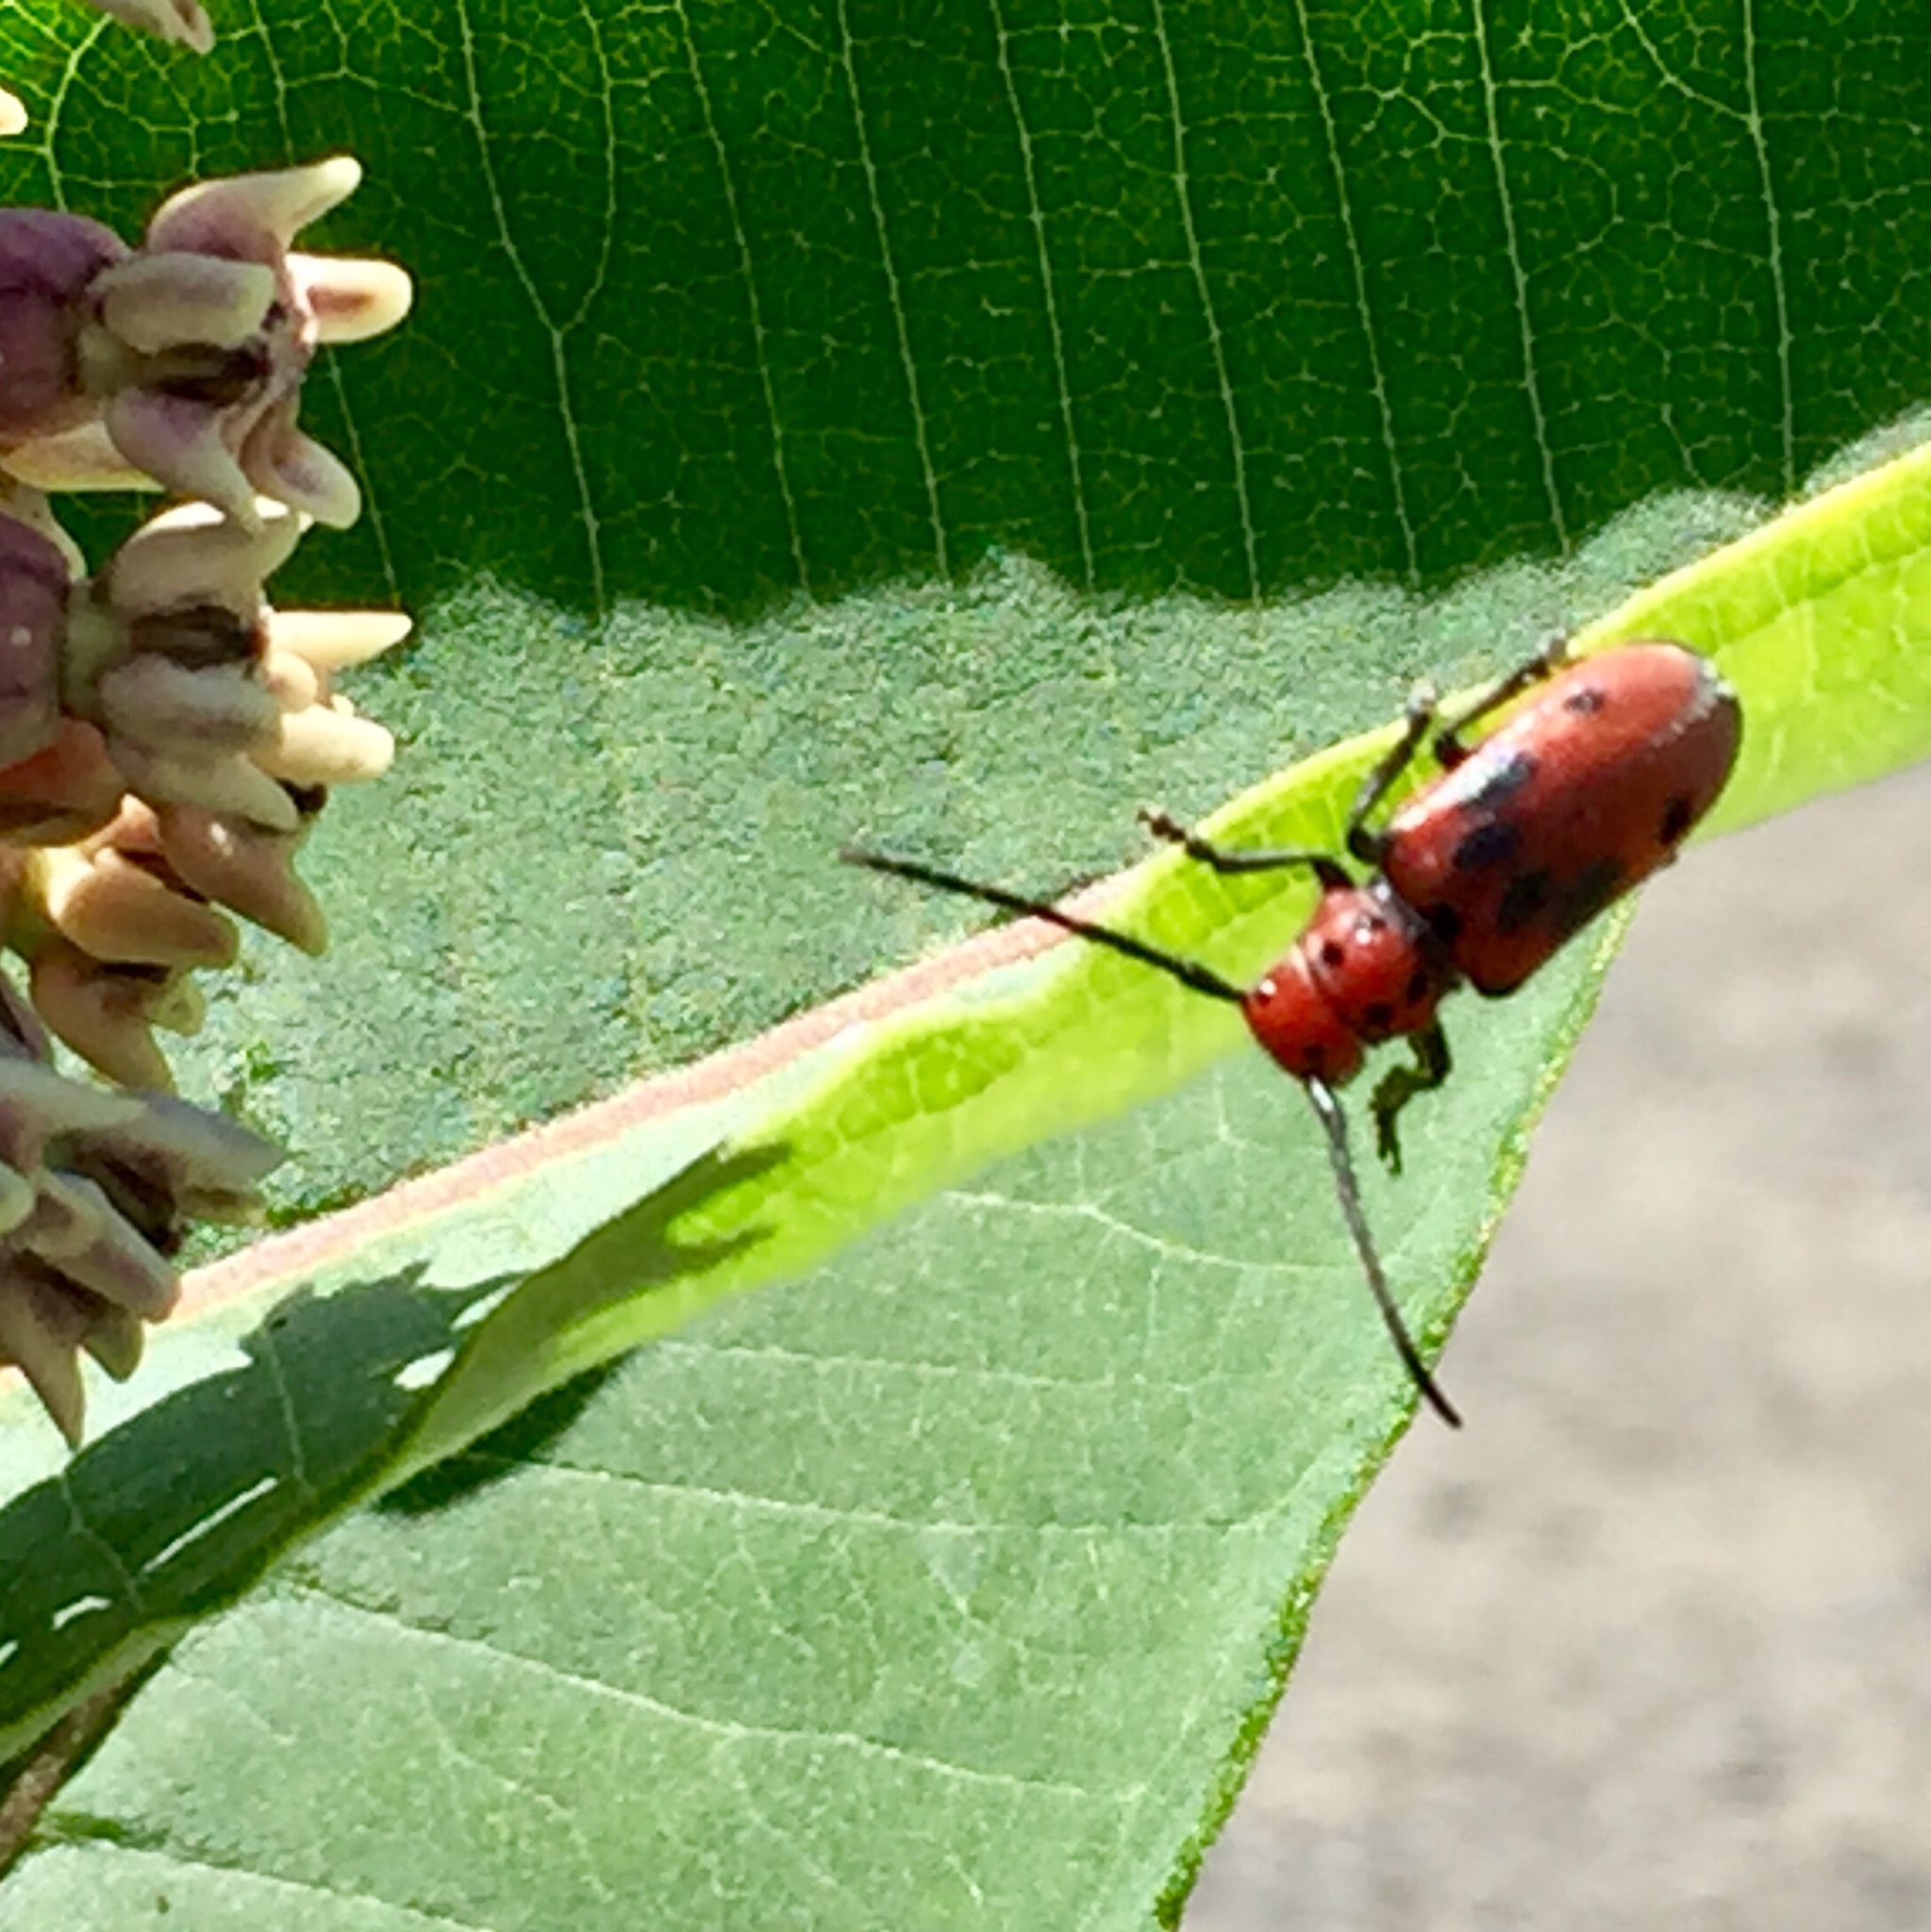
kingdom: Animalia
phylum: Arthropoda
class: Insecta
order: Coleoptera
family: Cerambycidae
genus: Tetraopes
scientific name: Tetraopes tetrophthalmus
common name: Red milkweed beetle
